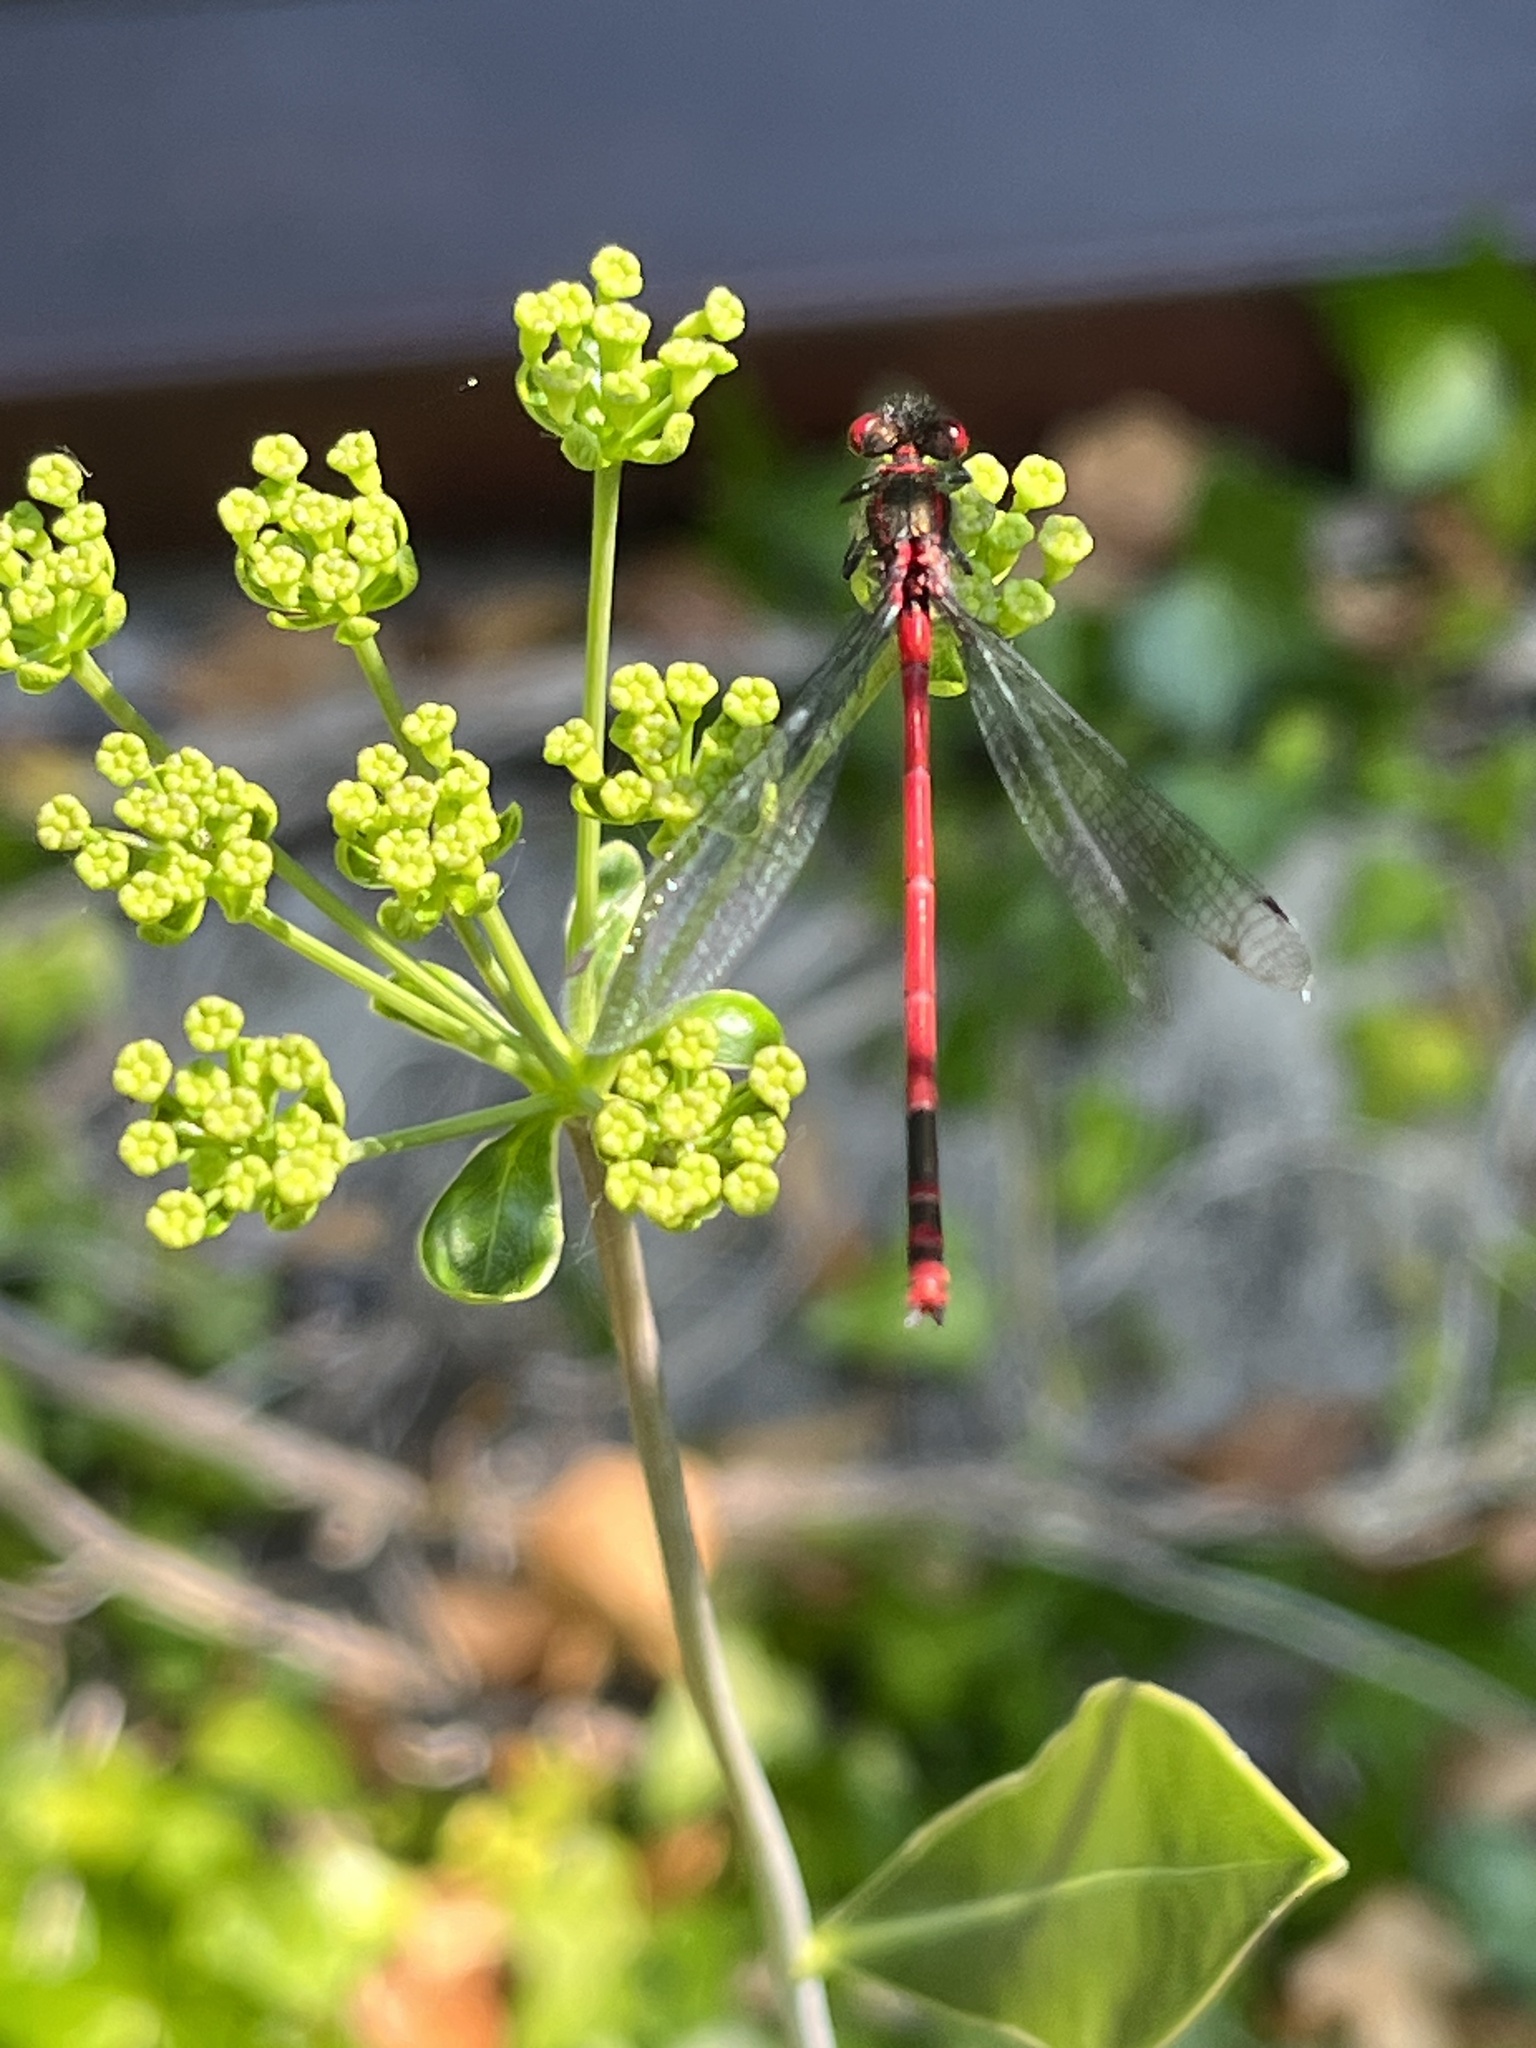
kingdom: Animalia
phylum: Arthropoda
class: Insecta
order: Odonata
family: Coenagrionidae
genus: Pyrrhosoma
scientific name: Pyrrhosoma nymphula
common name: Large red damsel
